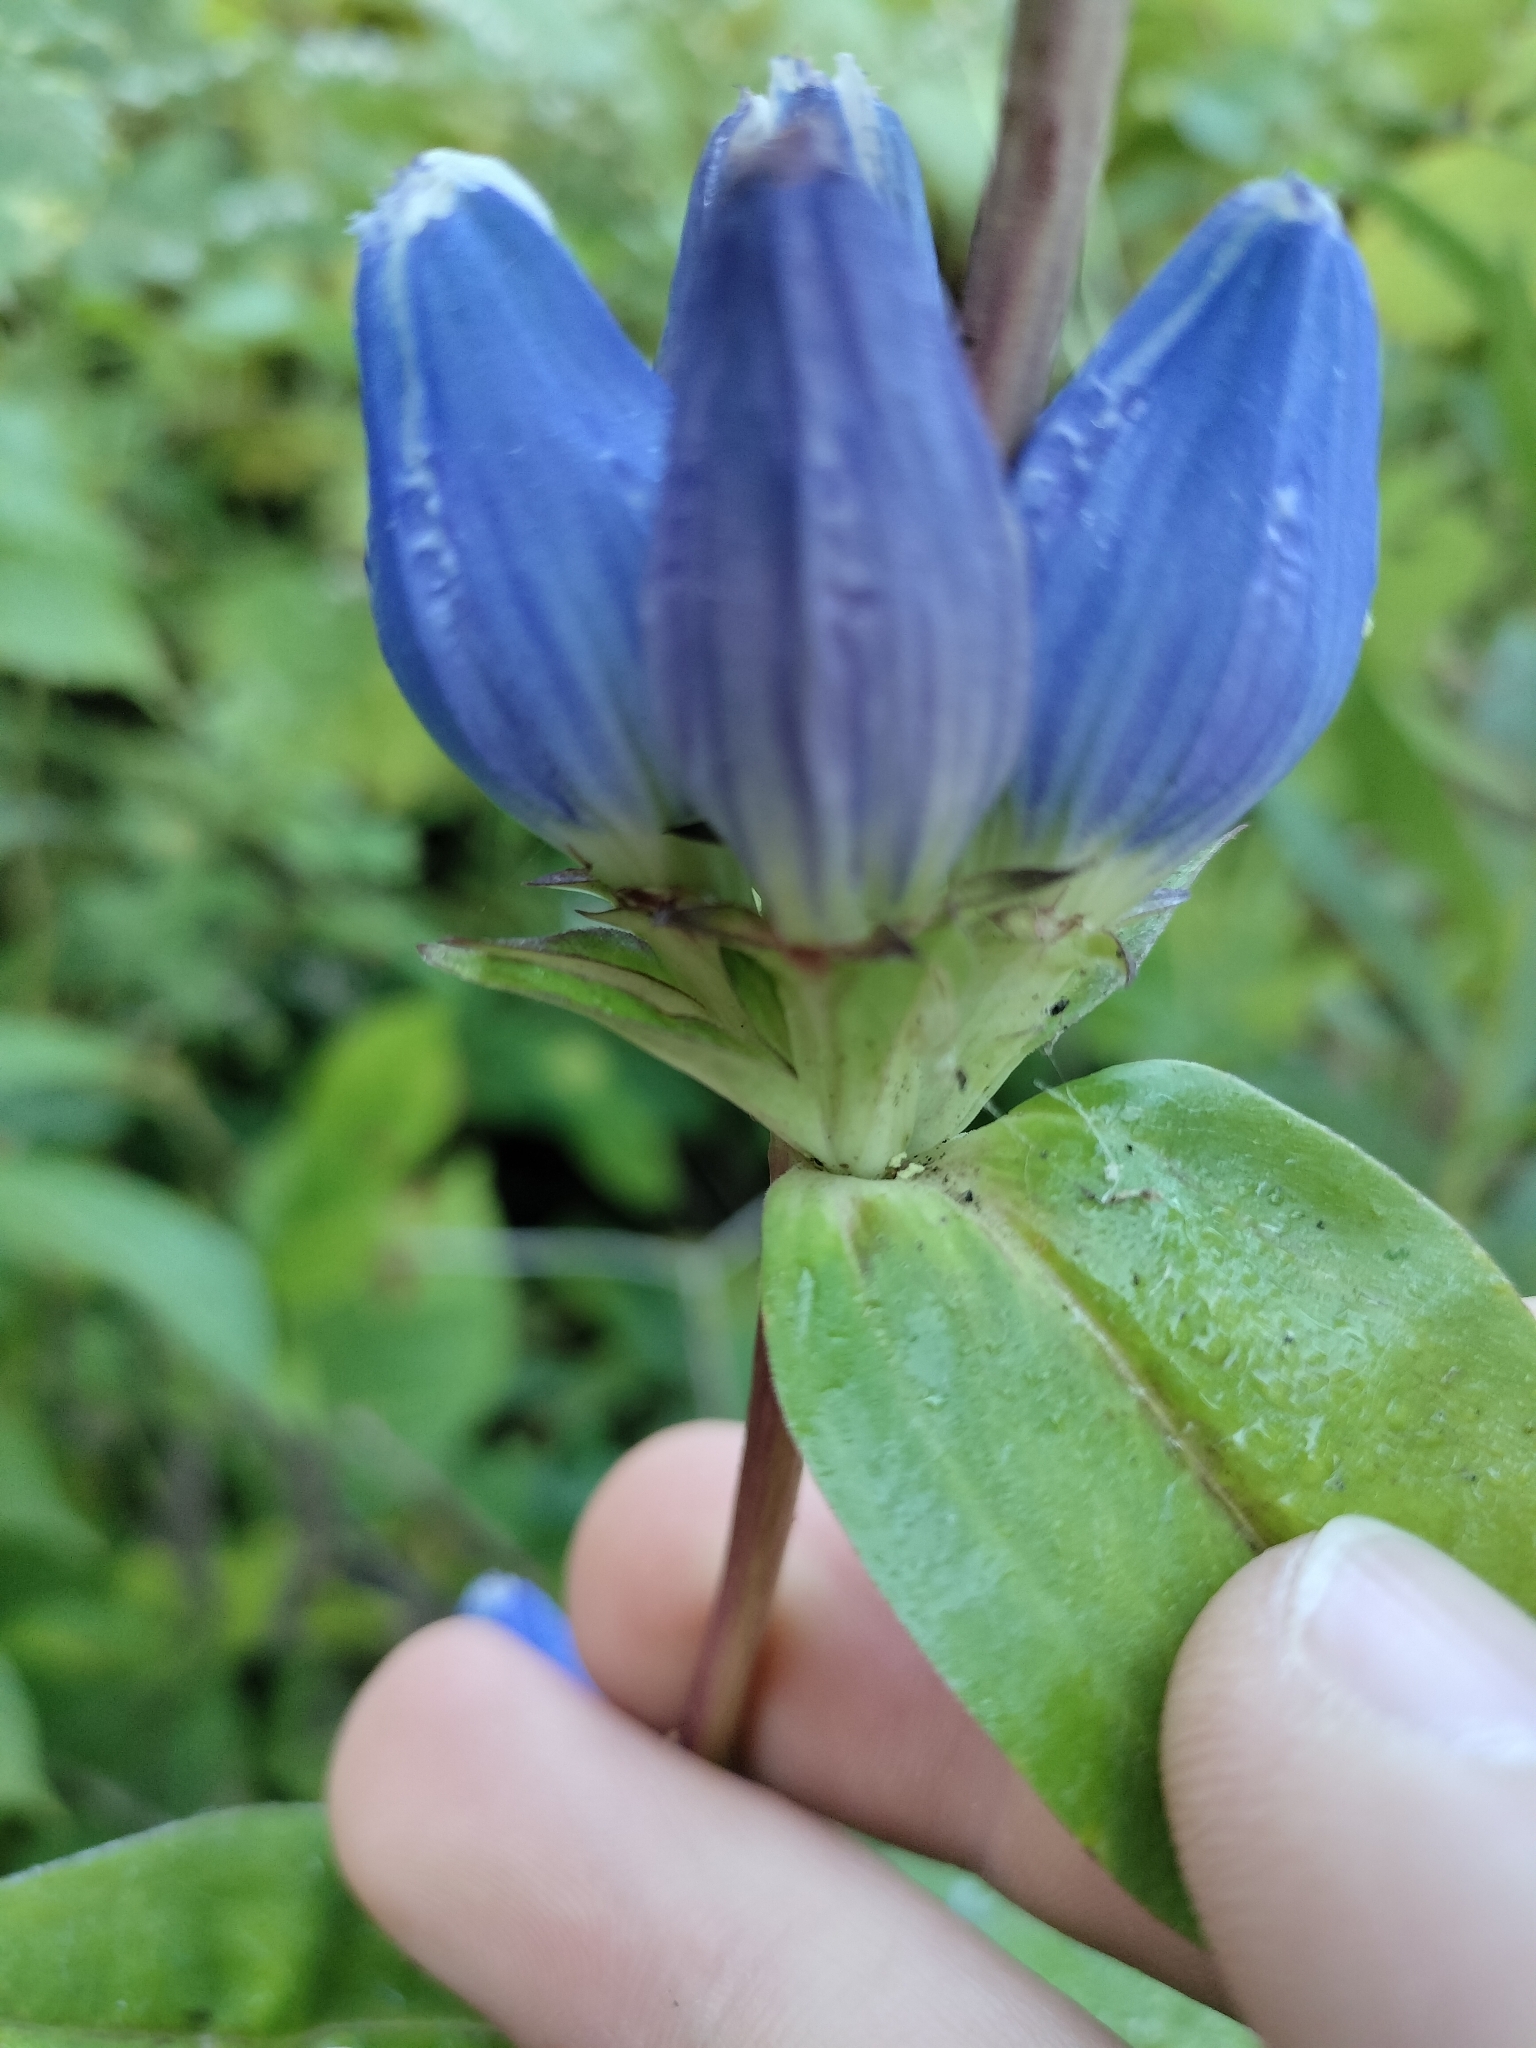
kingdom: Plantae
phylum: Tracheophyta
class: Magnoliopsida
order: Gentianales
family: Gentianaceae
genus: Gentiana
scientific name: Gentiana andrewsii
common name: Bottle gentian
